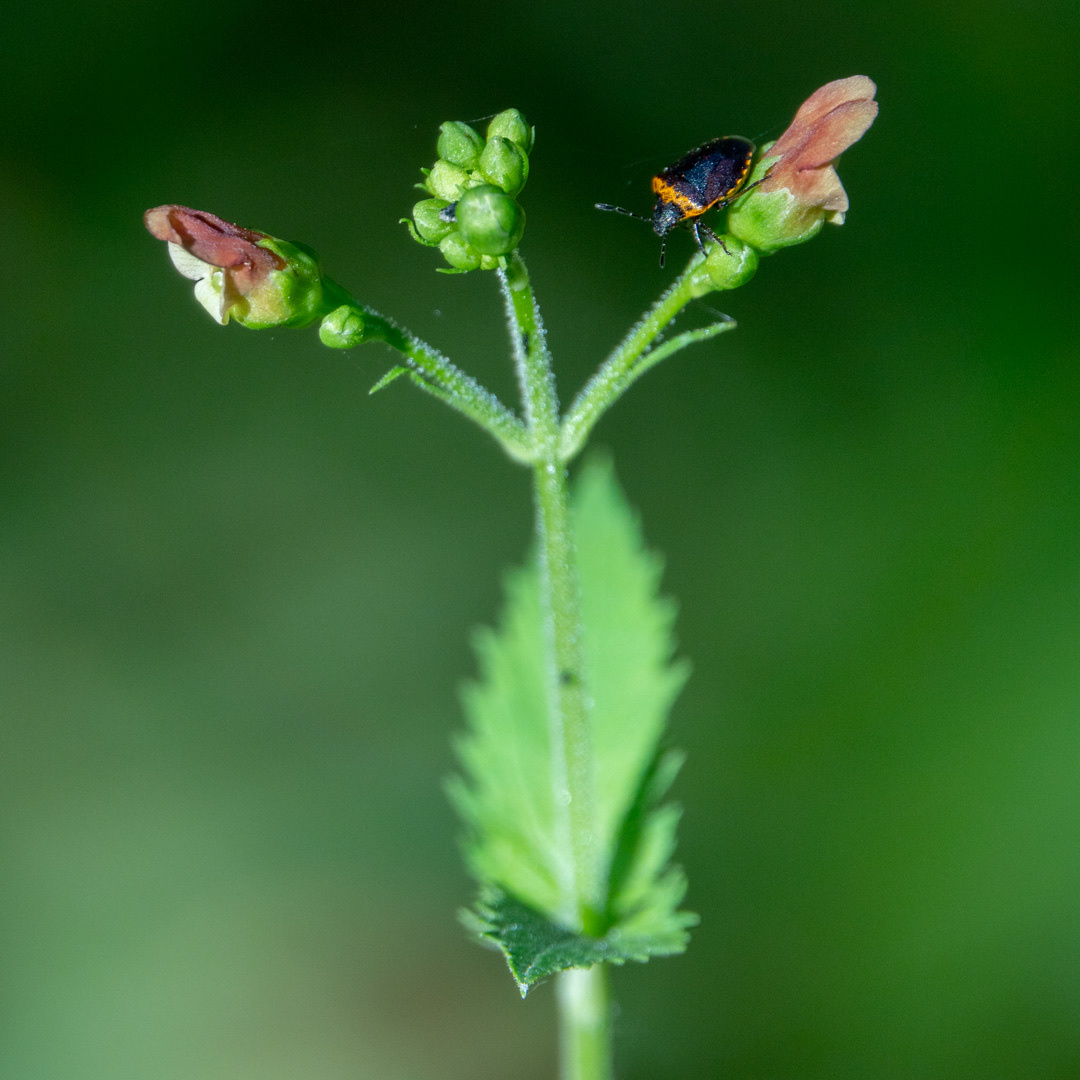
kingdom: Plantae
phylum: Tracheophyta
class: Magnoliopsida
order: Lamiales
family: Scrophulariaceae
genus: Scrophularia
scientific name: Scrophularia californica
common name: California figwort
